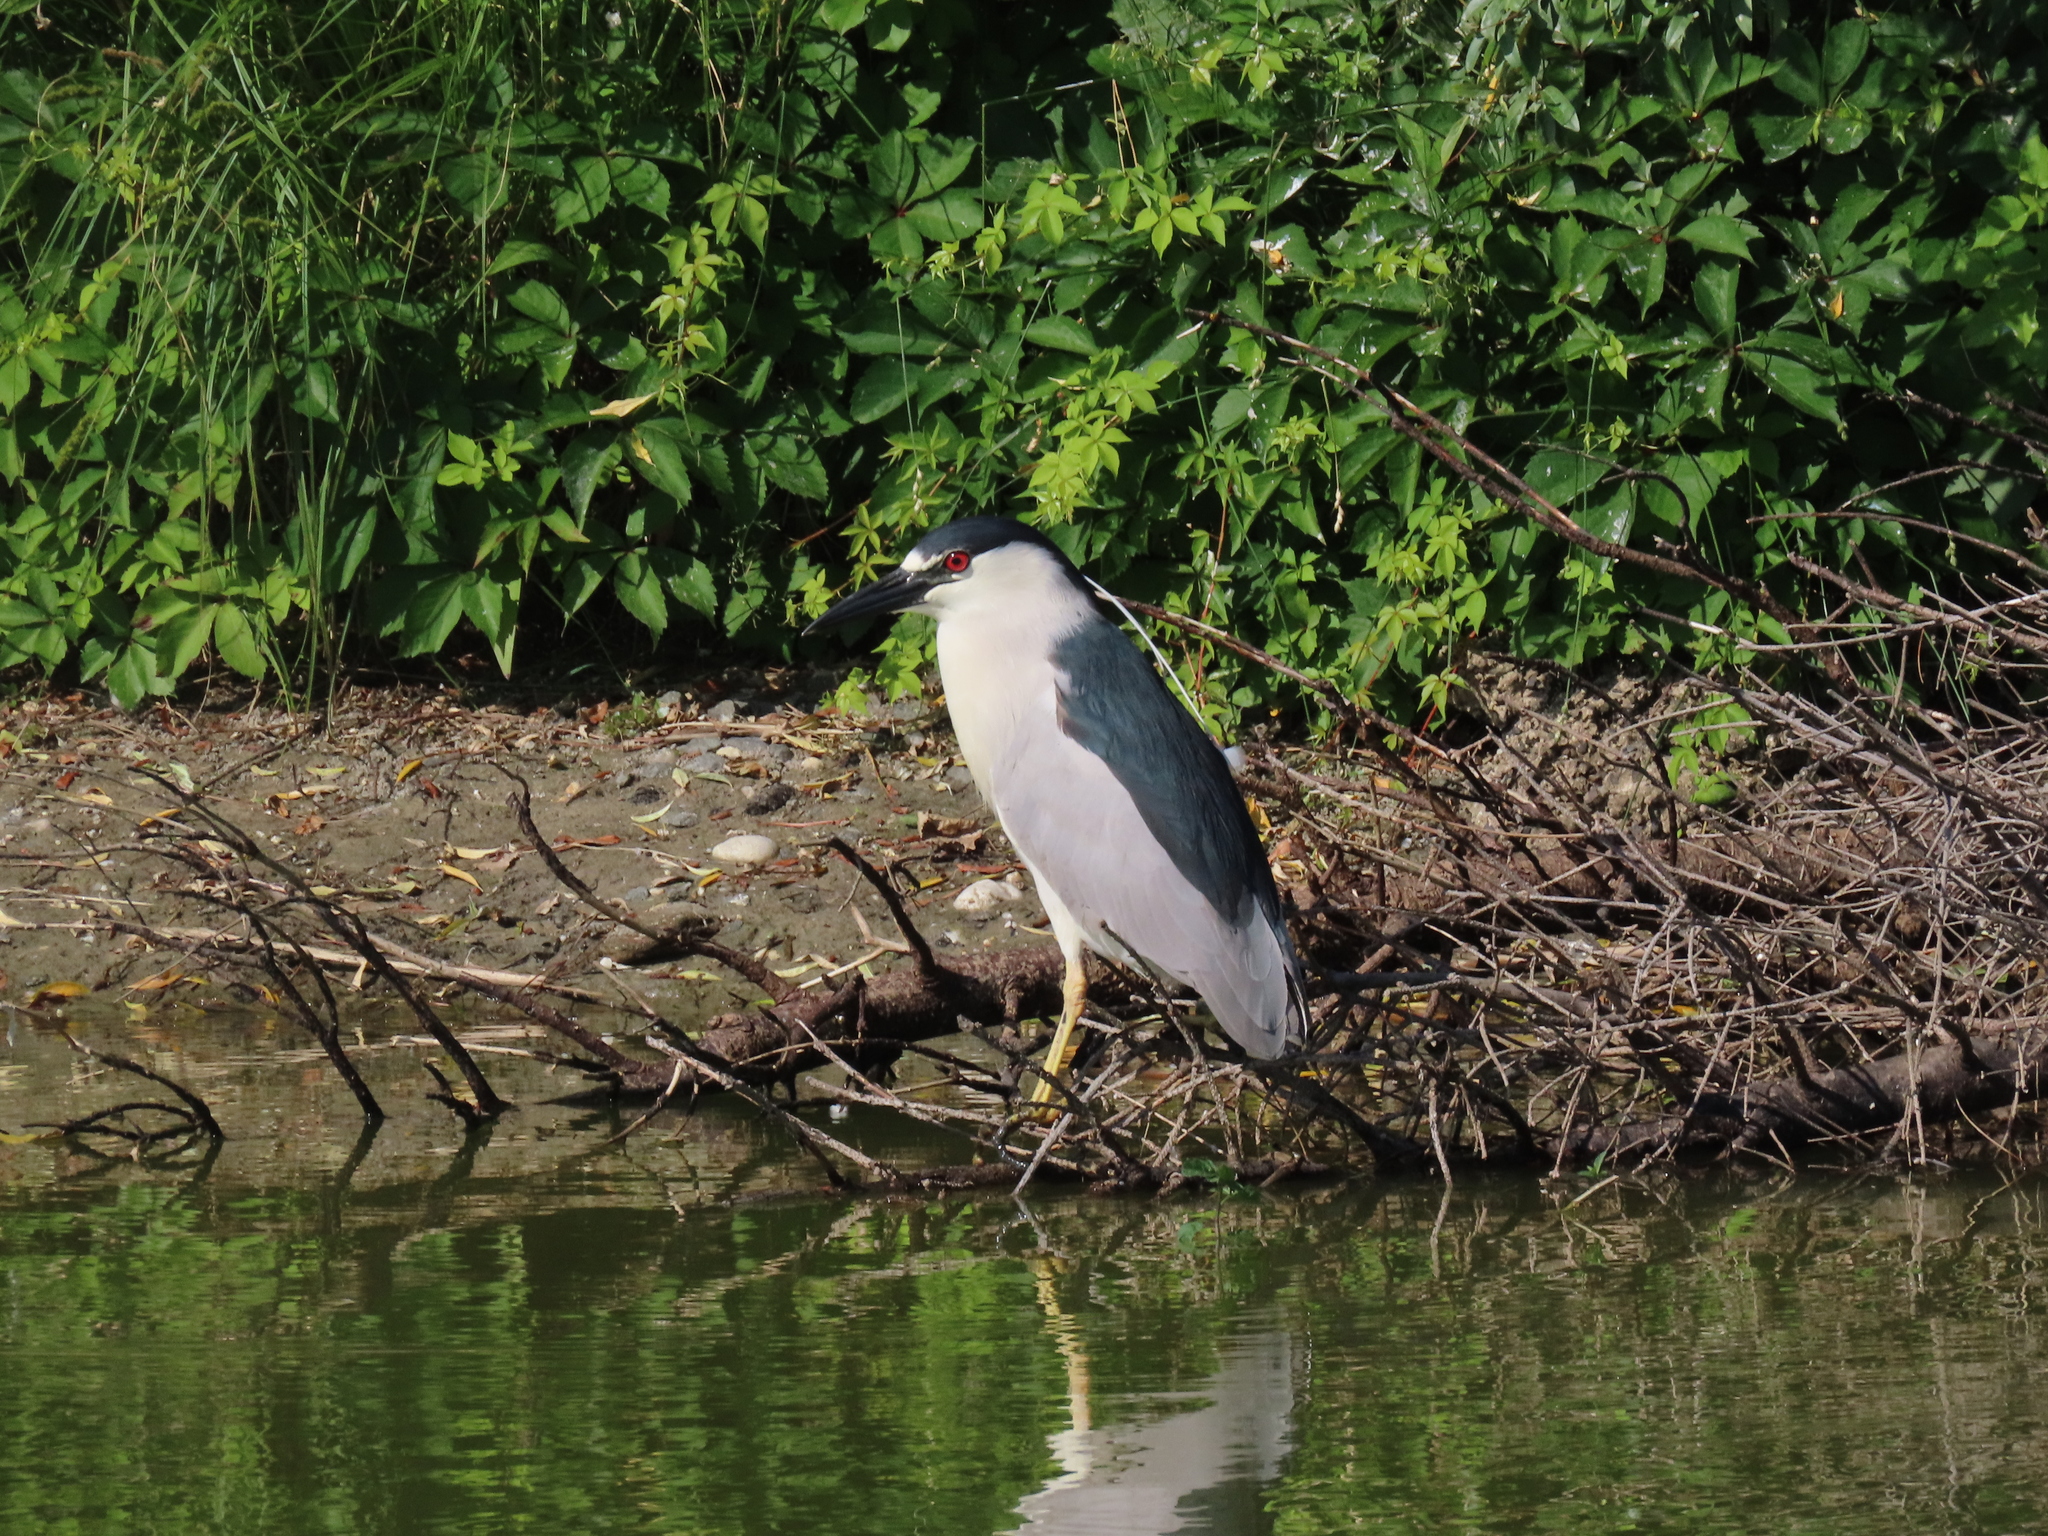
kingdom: Animalia
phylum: Chordata
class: Aves
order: Pelecaniformes
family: Ardeidae
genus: Nycticorax
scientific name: Nycticorax nycticorax
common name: Black-crowned night heron
